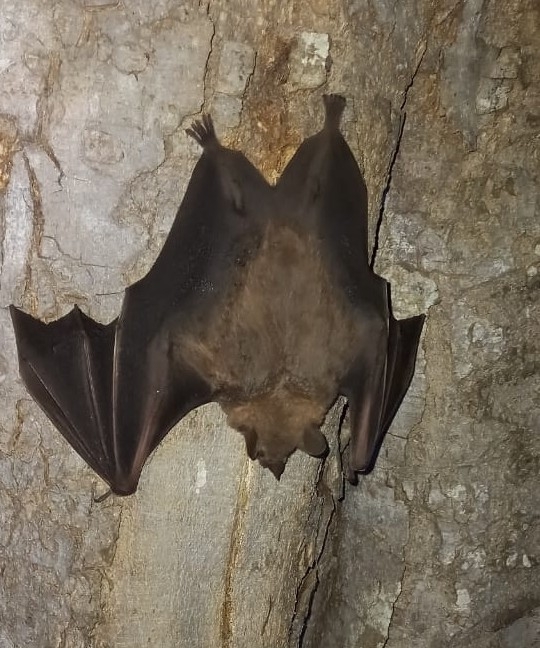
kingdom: Animalia
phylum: Chordata
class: Mammalia
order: Chiroptera
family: Phyllostomidae
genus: Artibeus
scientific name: Artibeus jamaicensis
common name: Jamaican fruit-eating bat
